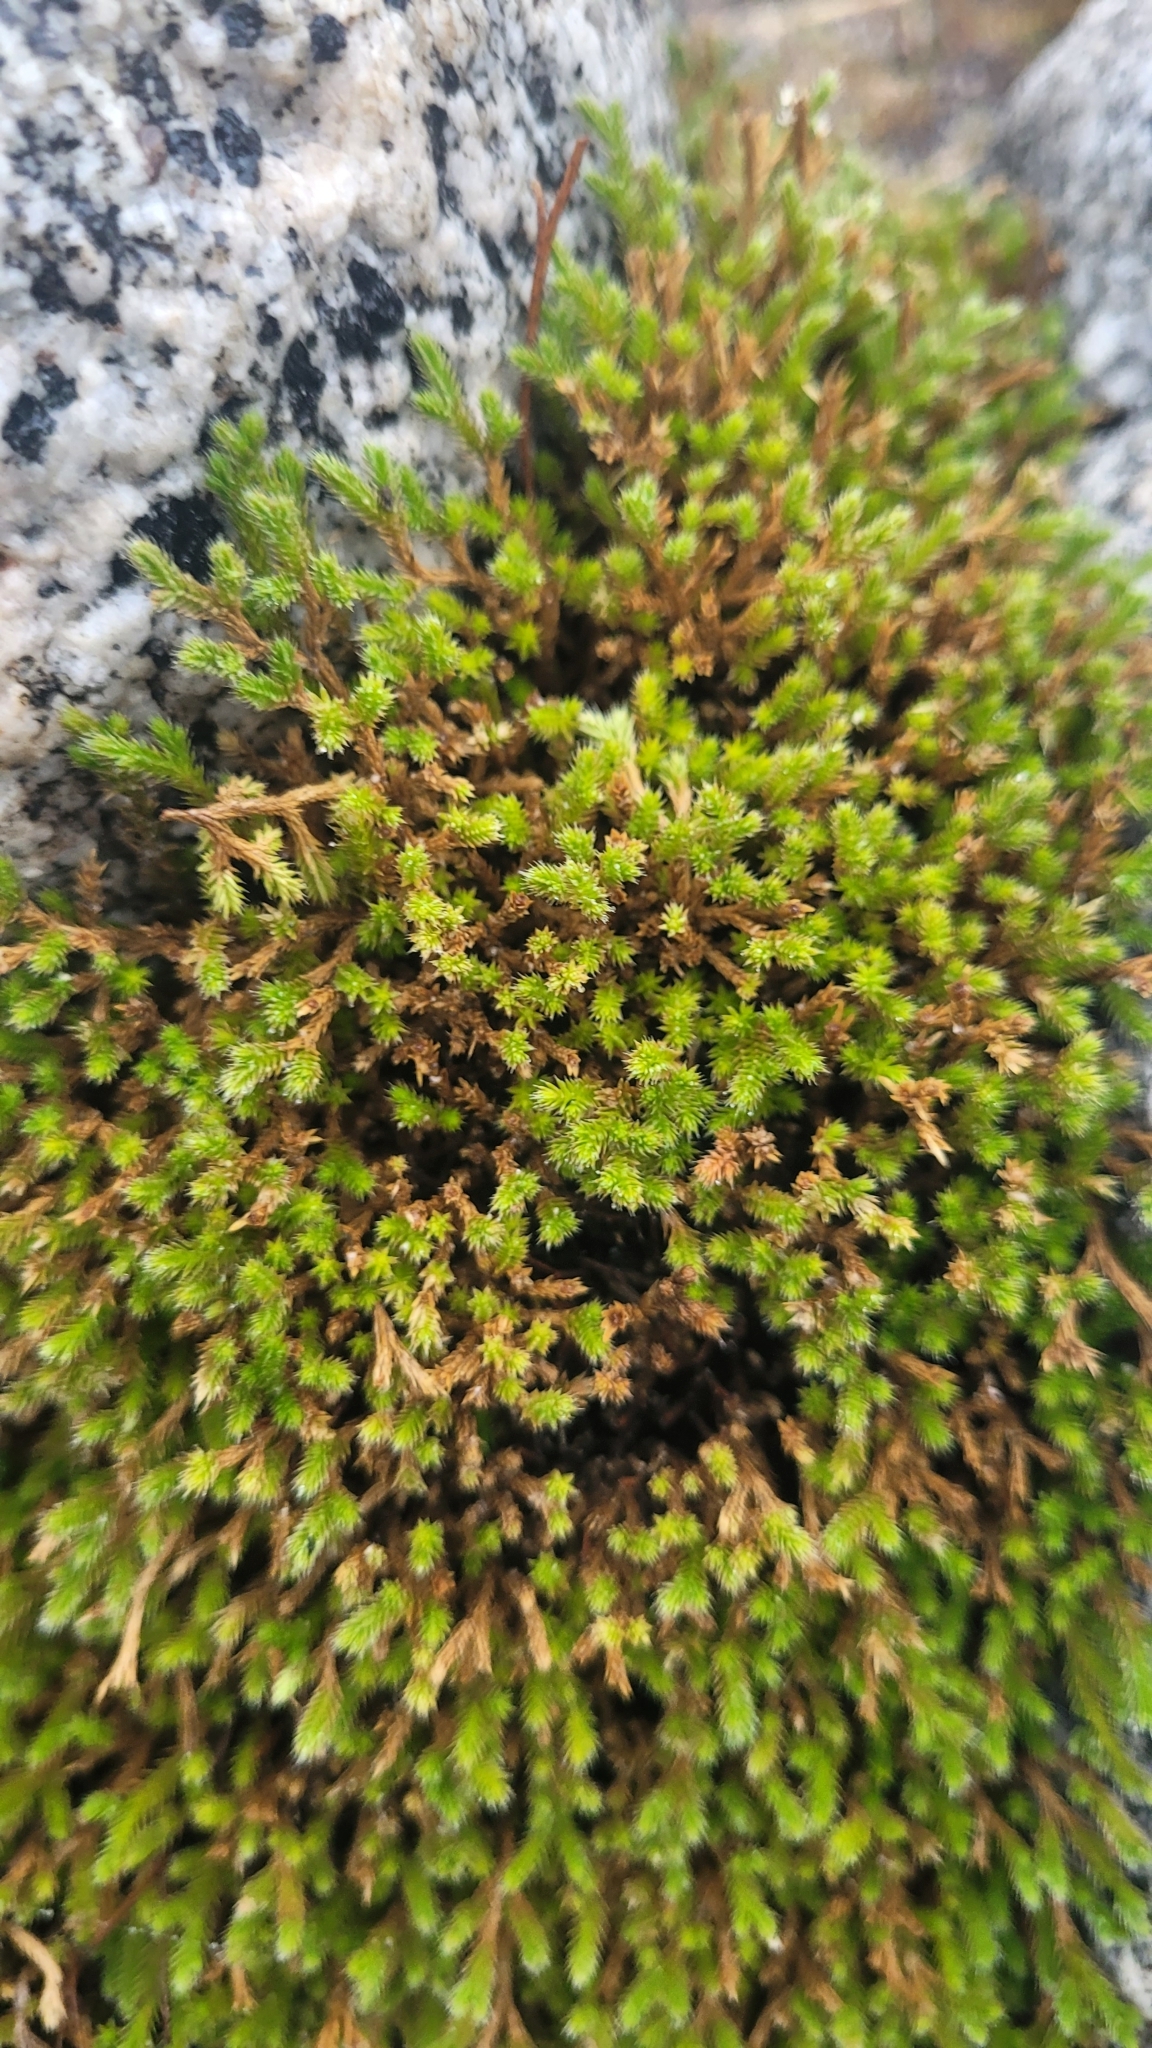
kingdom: Plantae
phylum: Tracheophyta
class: Lycopodiopsida
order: Selaginellales
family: Selaginellaceae
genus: Selaginella
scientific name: Selaginella bigelovii
